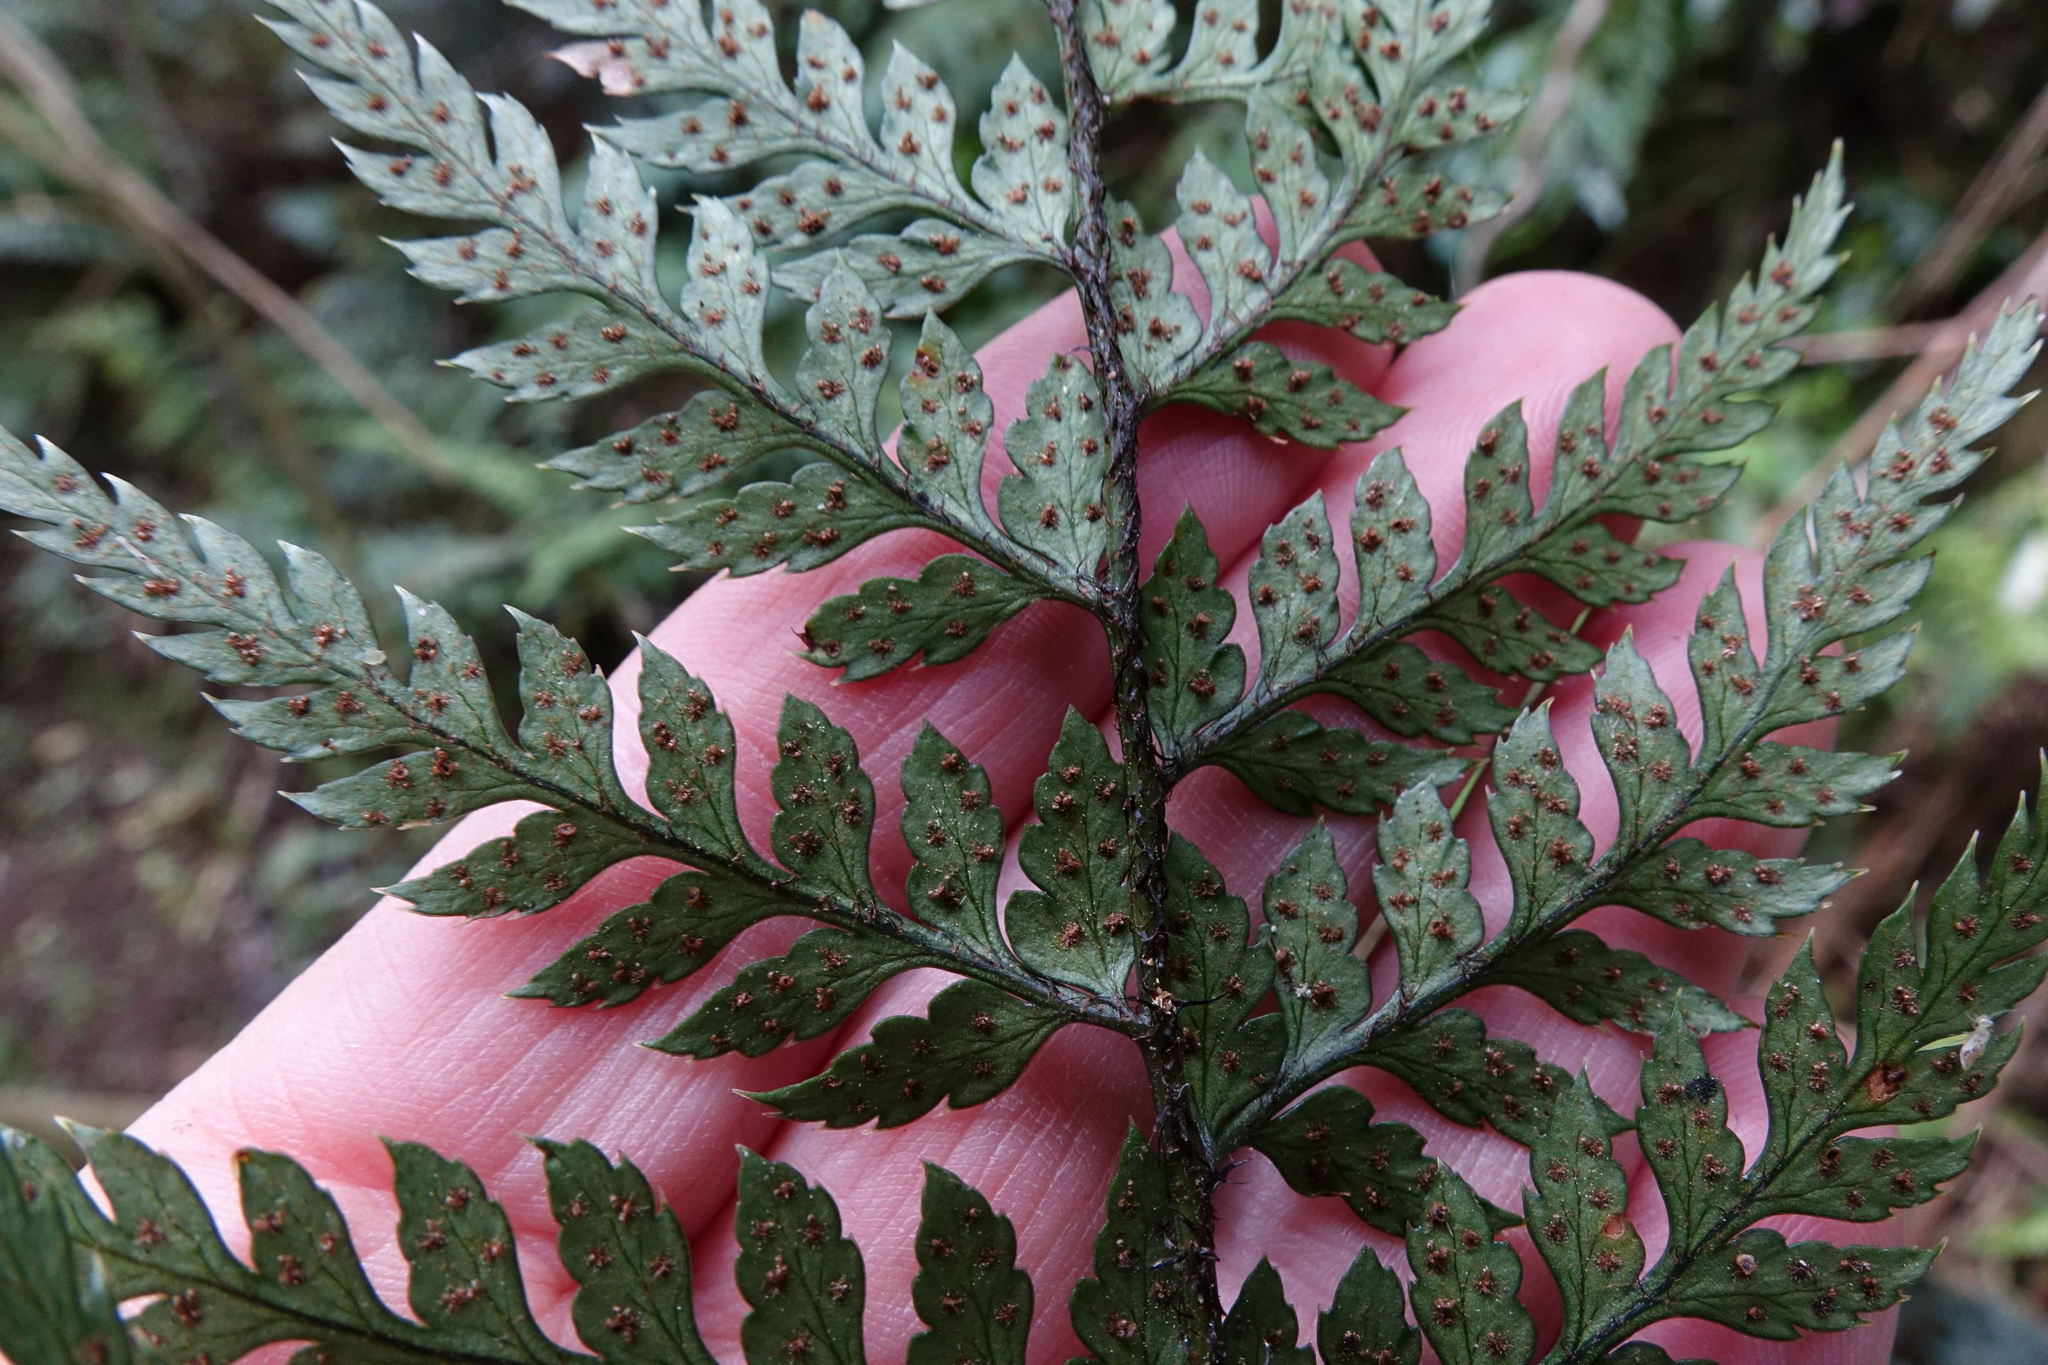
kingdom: Plantae
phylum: Tracheophyta
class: Polypodiopsida
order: Polypodiales
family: Dryopteridaceae
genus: Polystichum
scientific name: Polystichum neozelandicum
